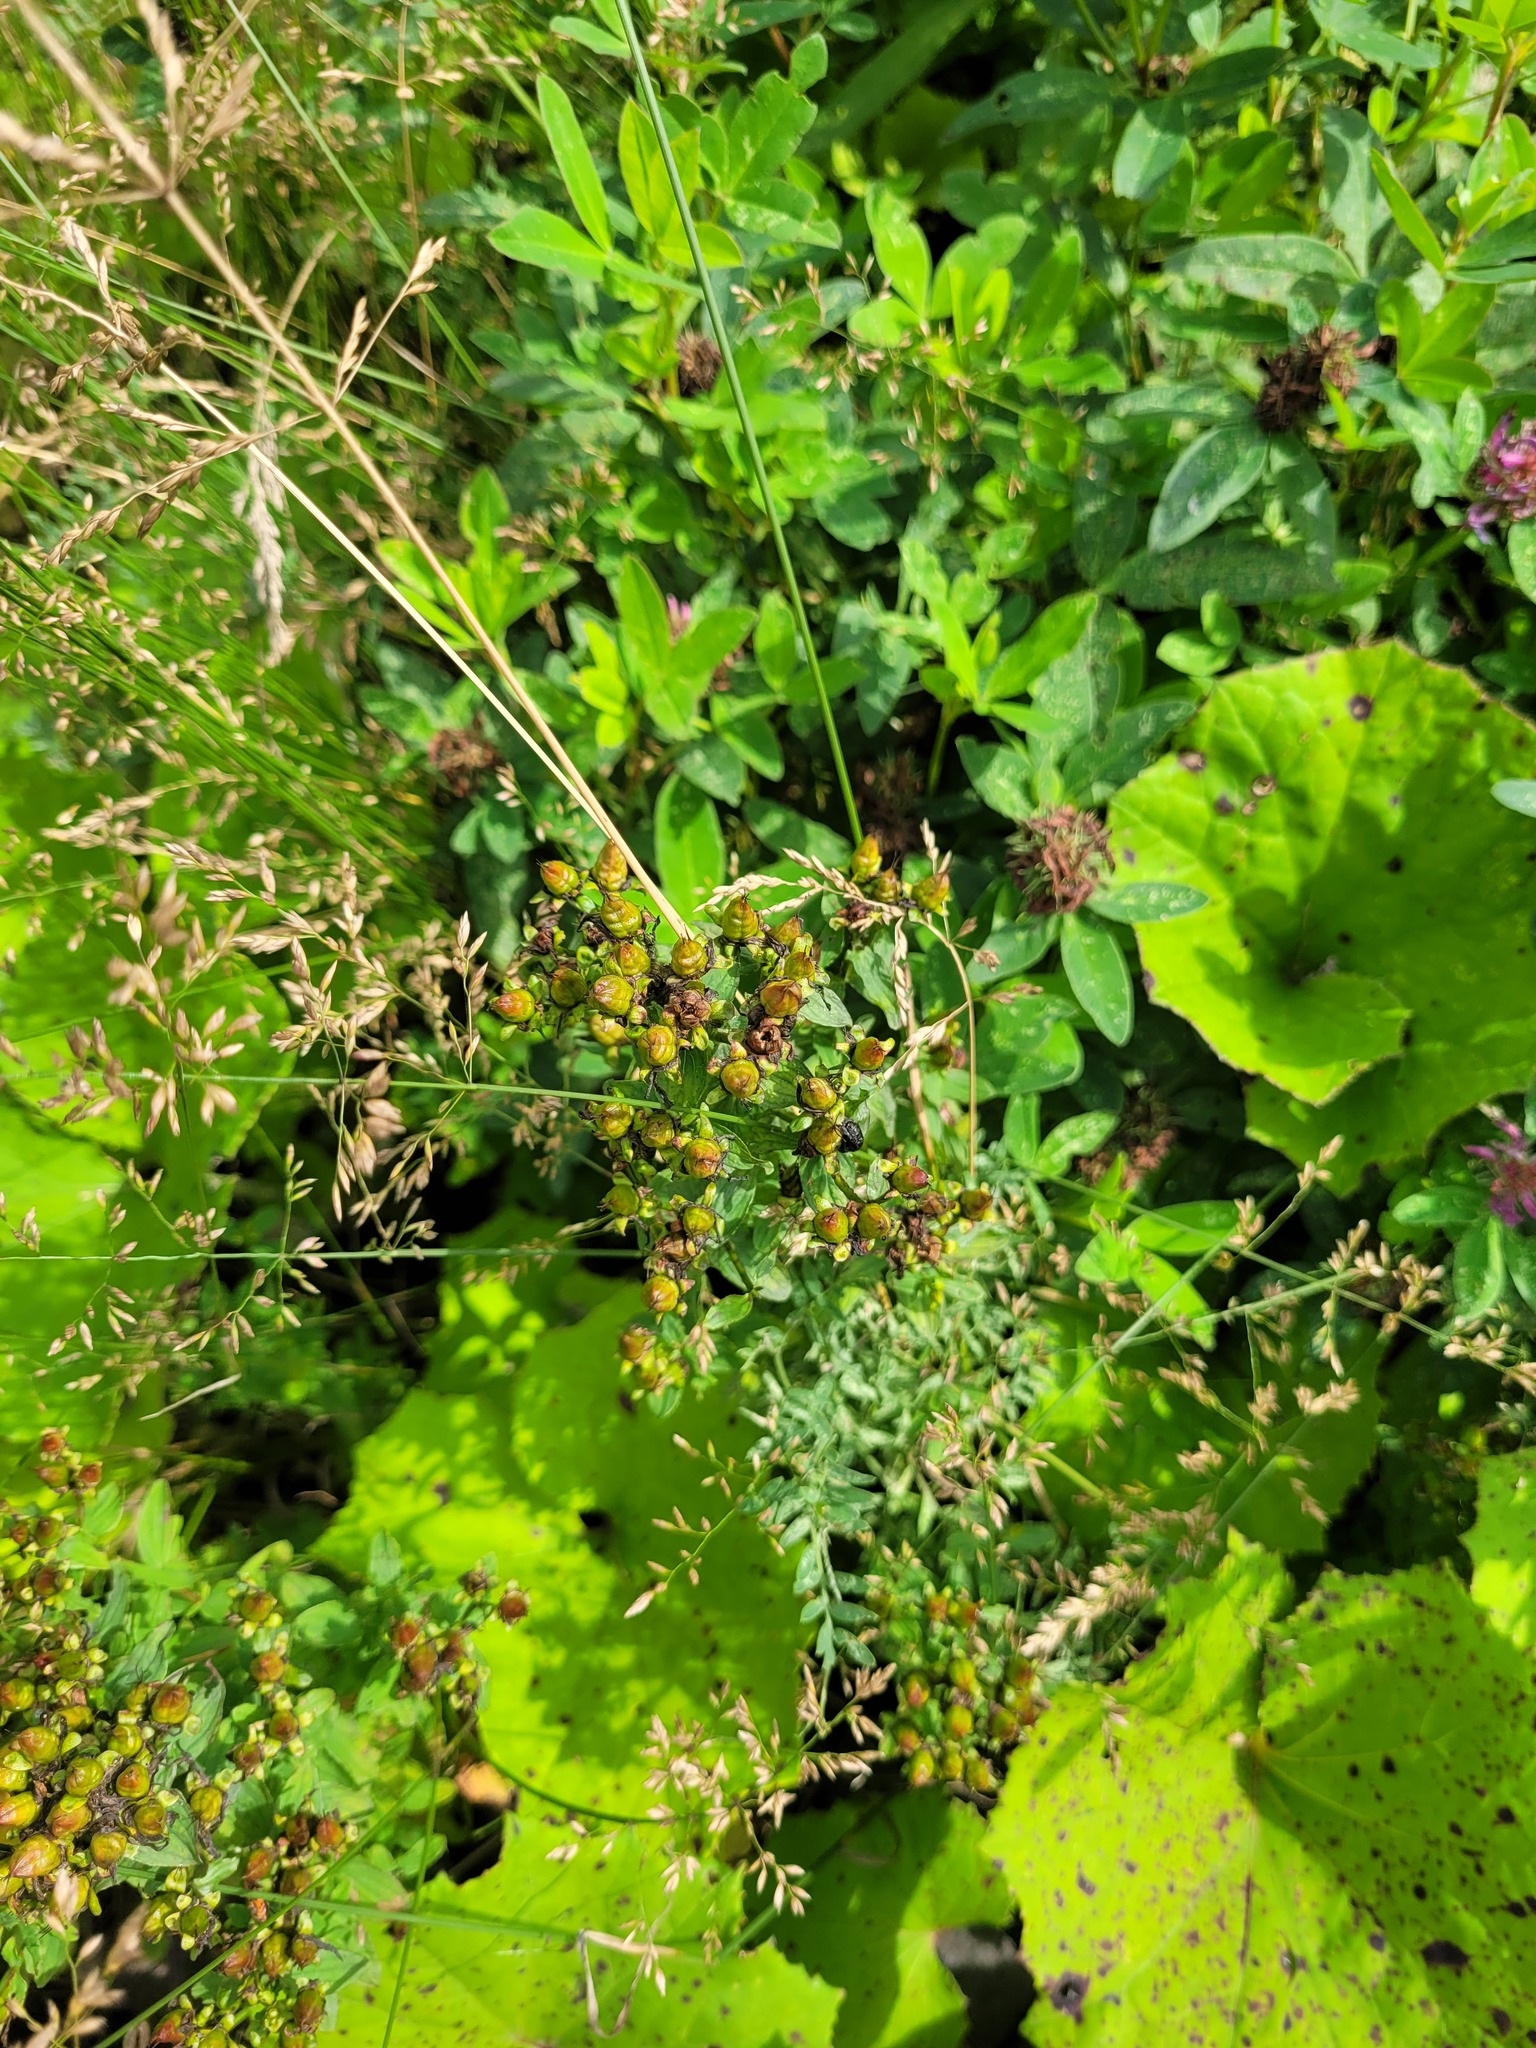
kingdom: Plantae
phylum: Tracheophyta
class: Magnoliopsida
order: Malpighiales
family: Hypericaceae
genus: Hypericum
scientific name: Hypericum maculatum
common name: Imperforate st. john's-wort
